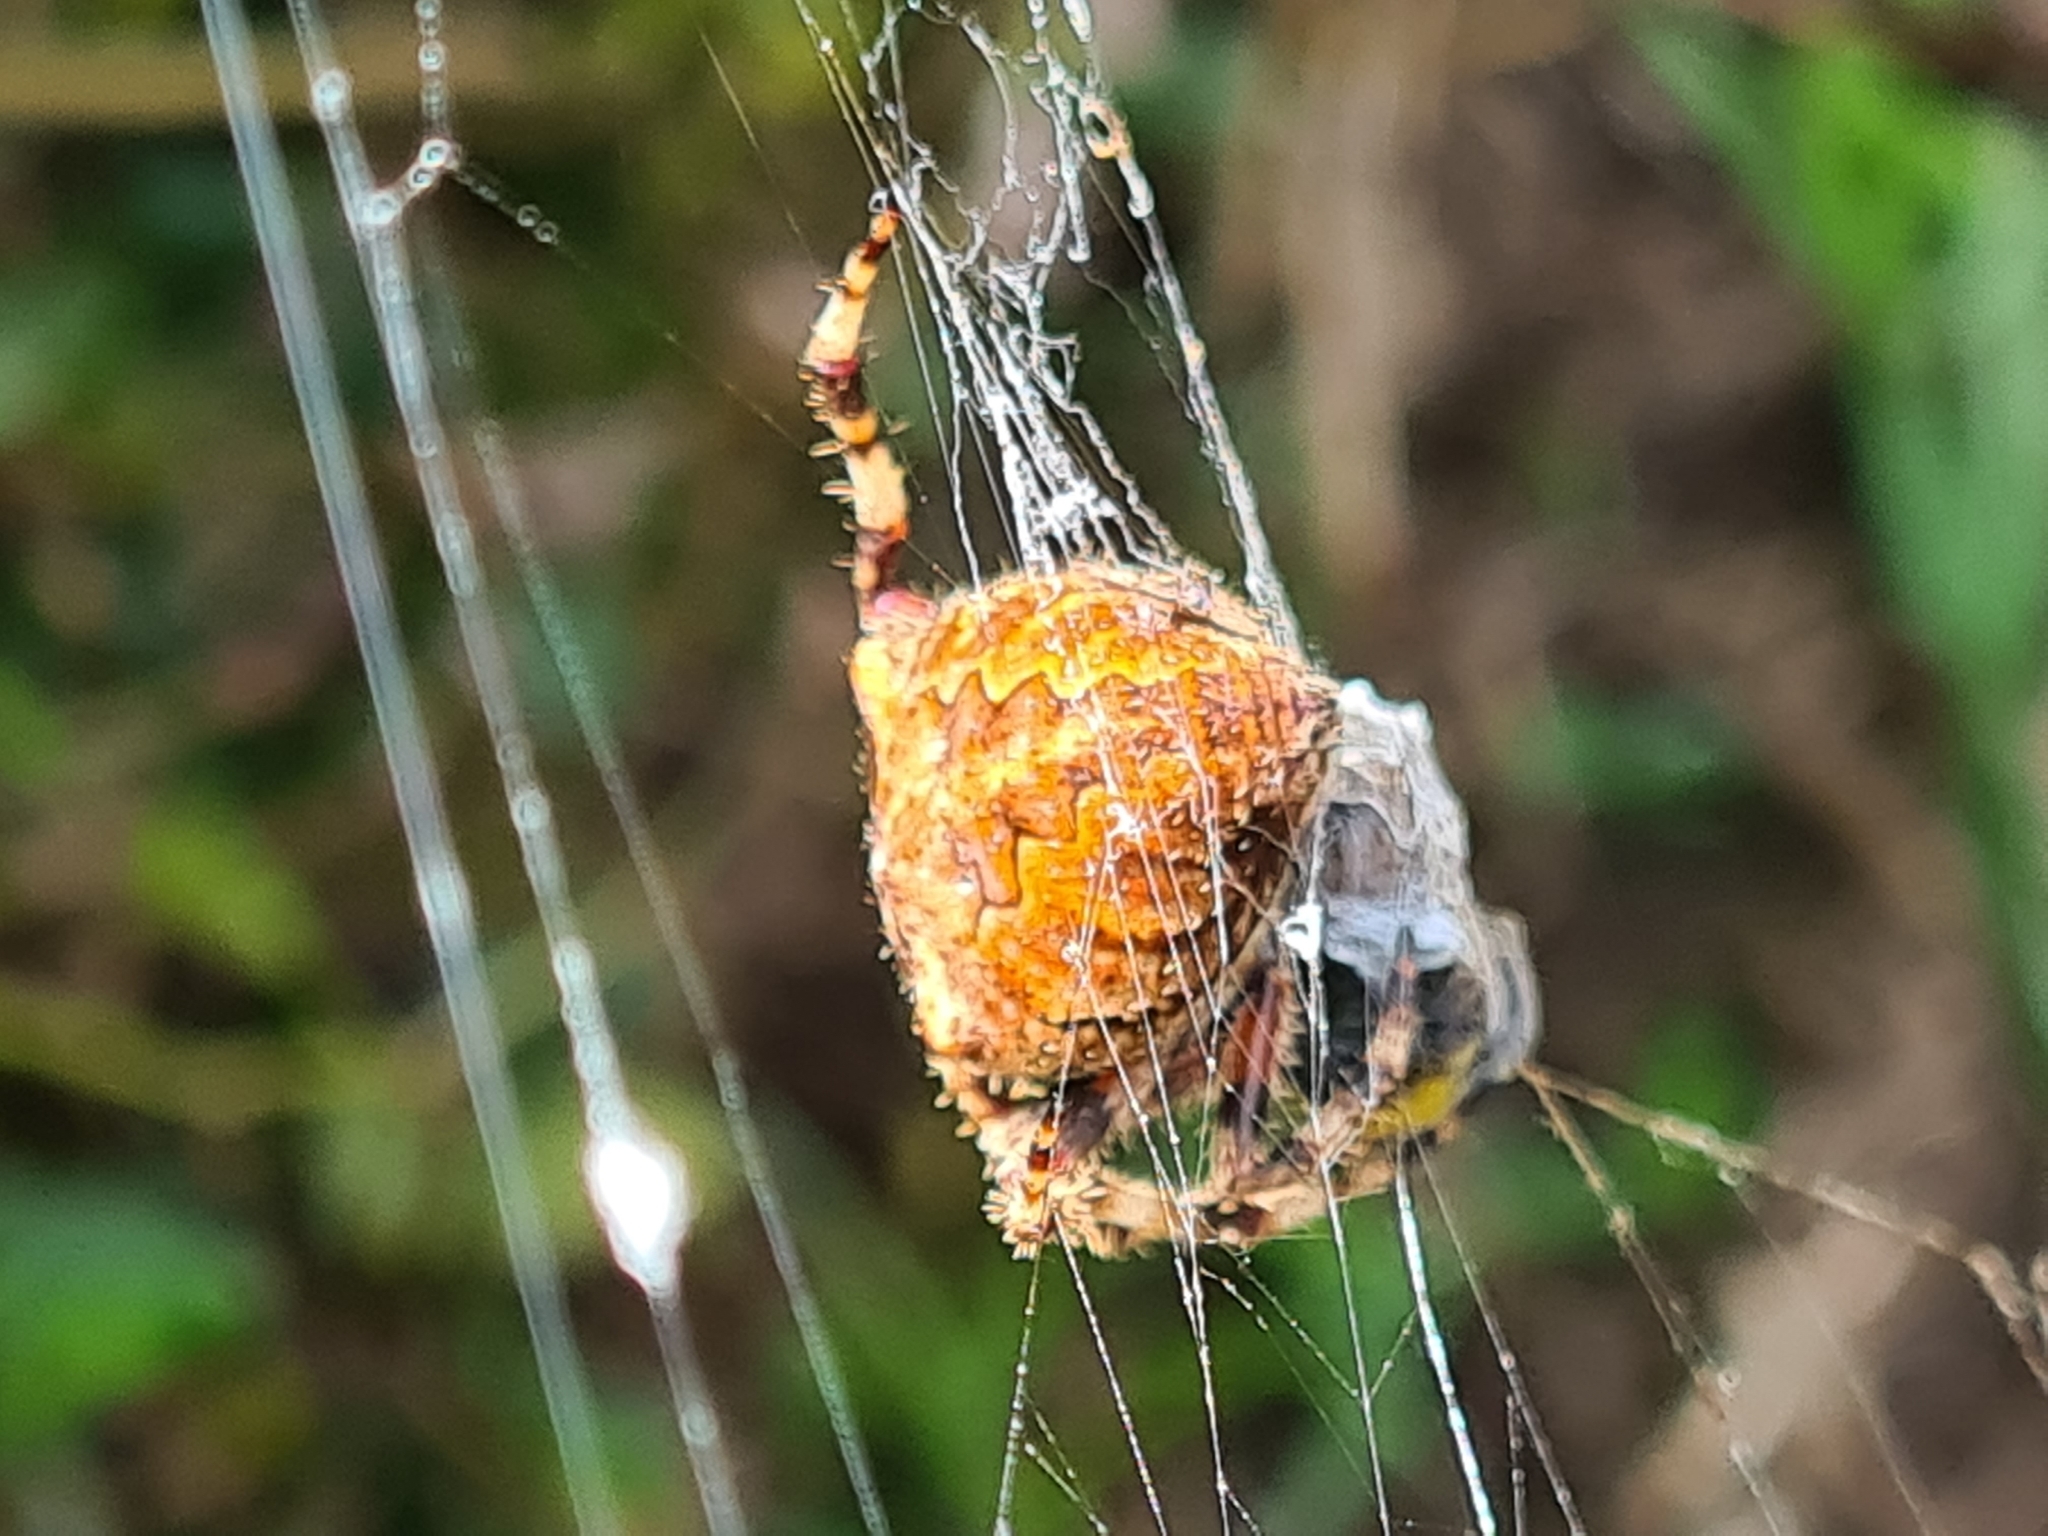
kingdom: Animalia
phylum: Arthropoda
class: Arachnida
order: Araneae
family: Araneidae
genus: Araneus
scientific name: Araneus angulatus
